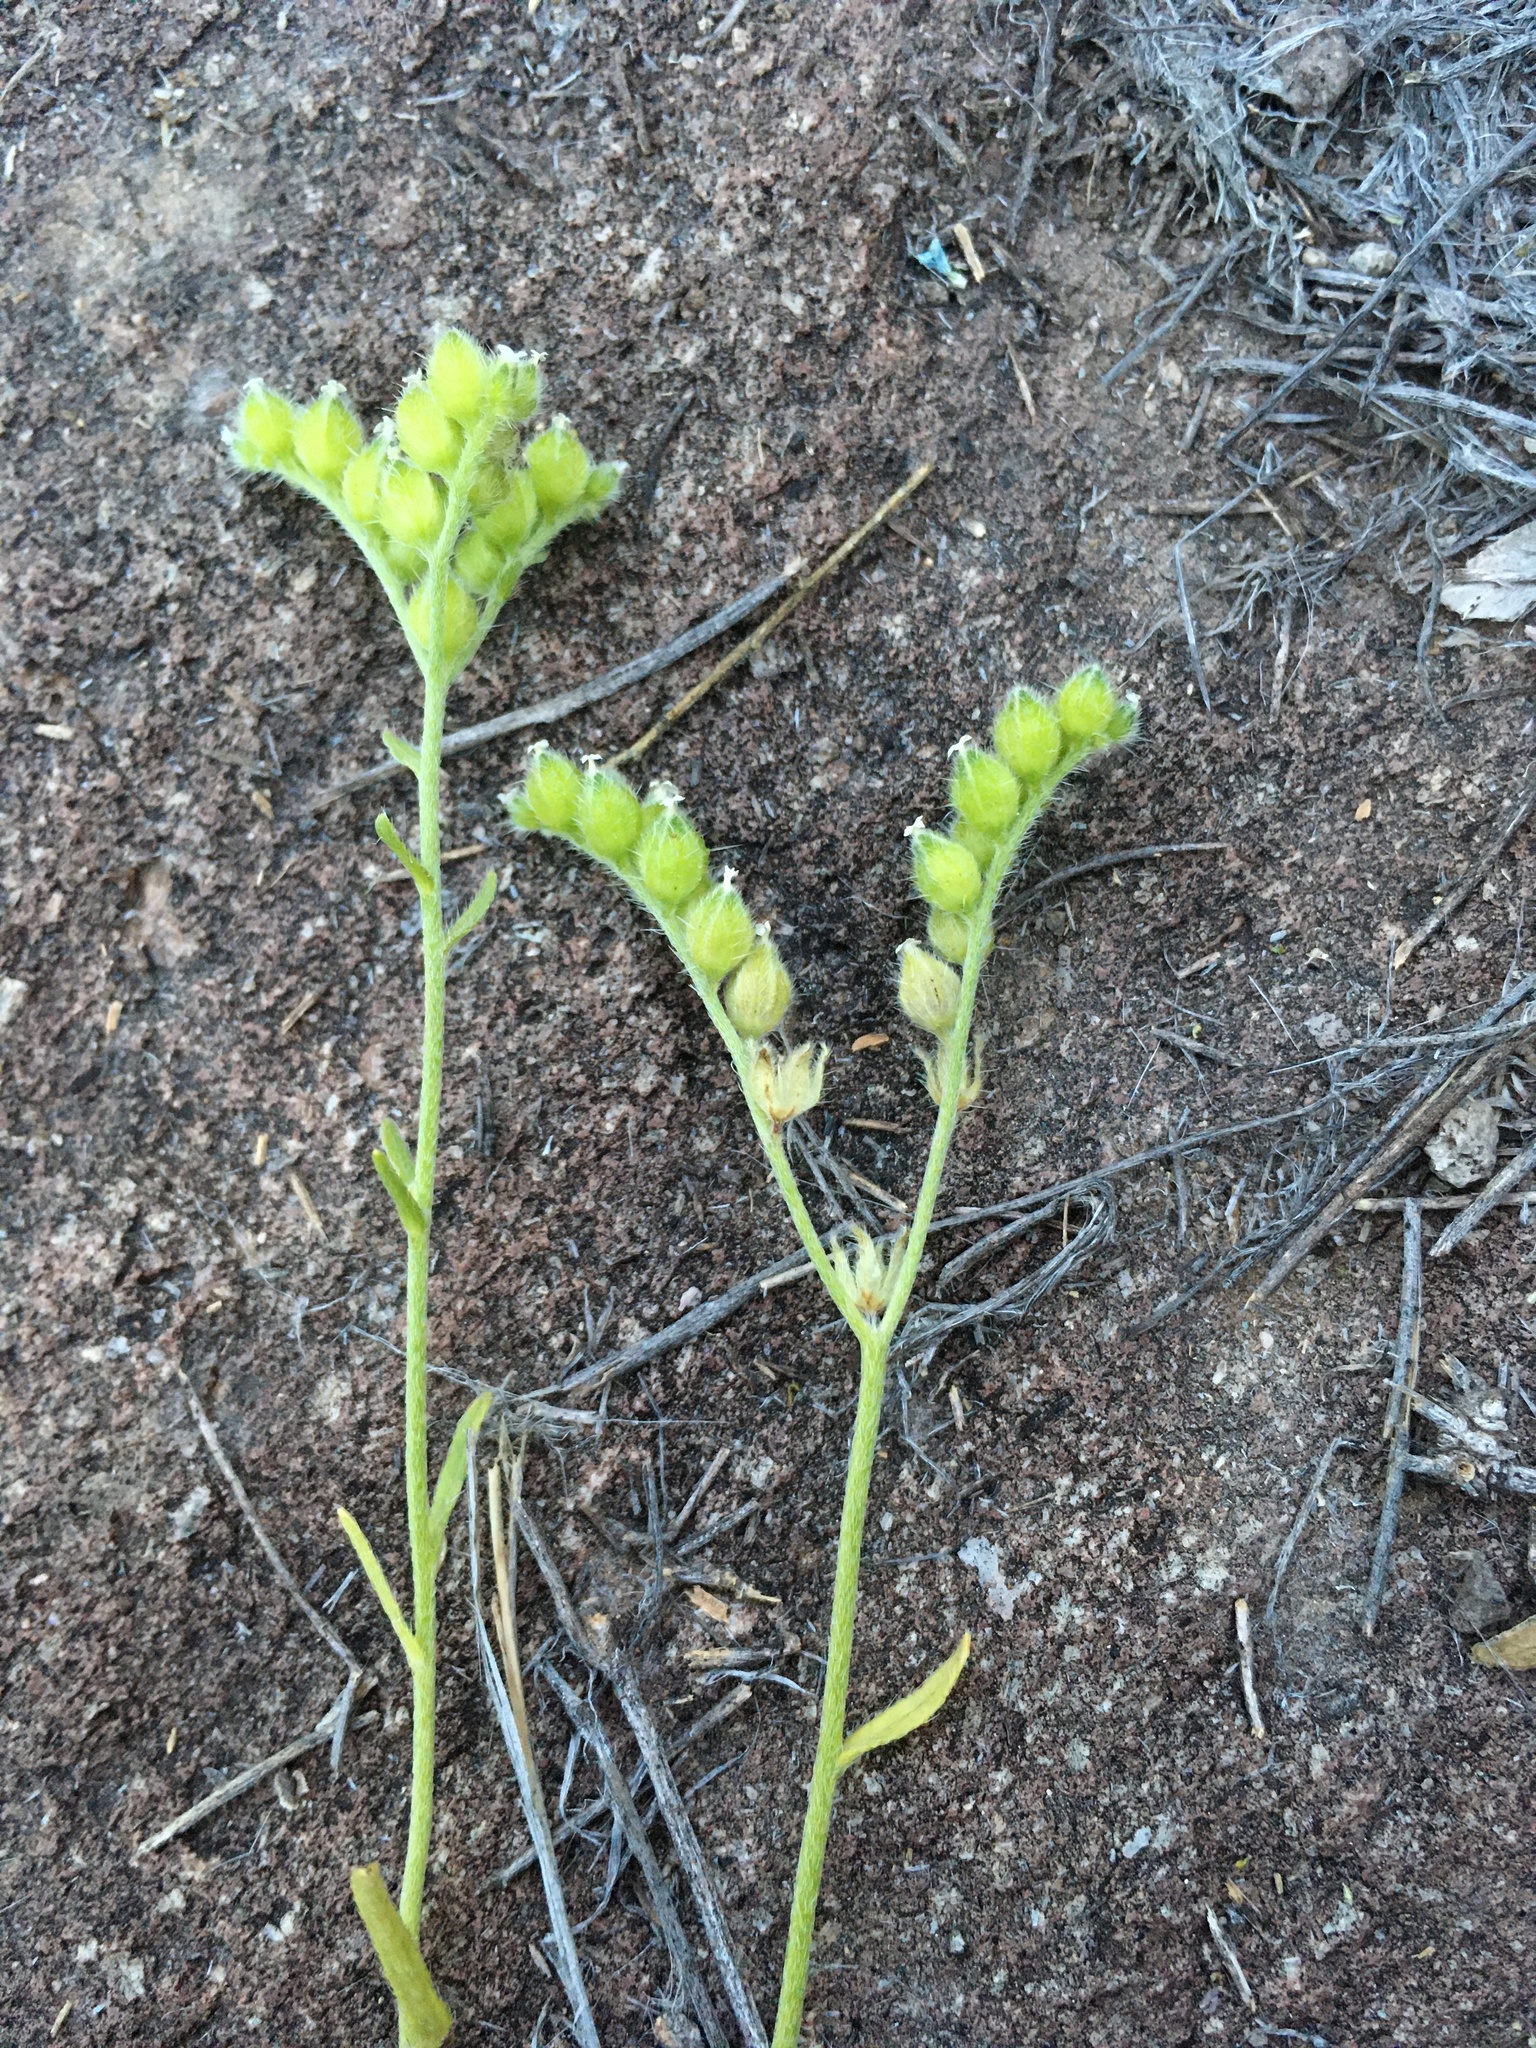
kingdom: Plantae
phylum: Tracheophyta
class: Magnoliopsida
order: Boraginales
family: Boraginaceae
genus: Cryptantha
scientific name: Cryptantha pterocarya
